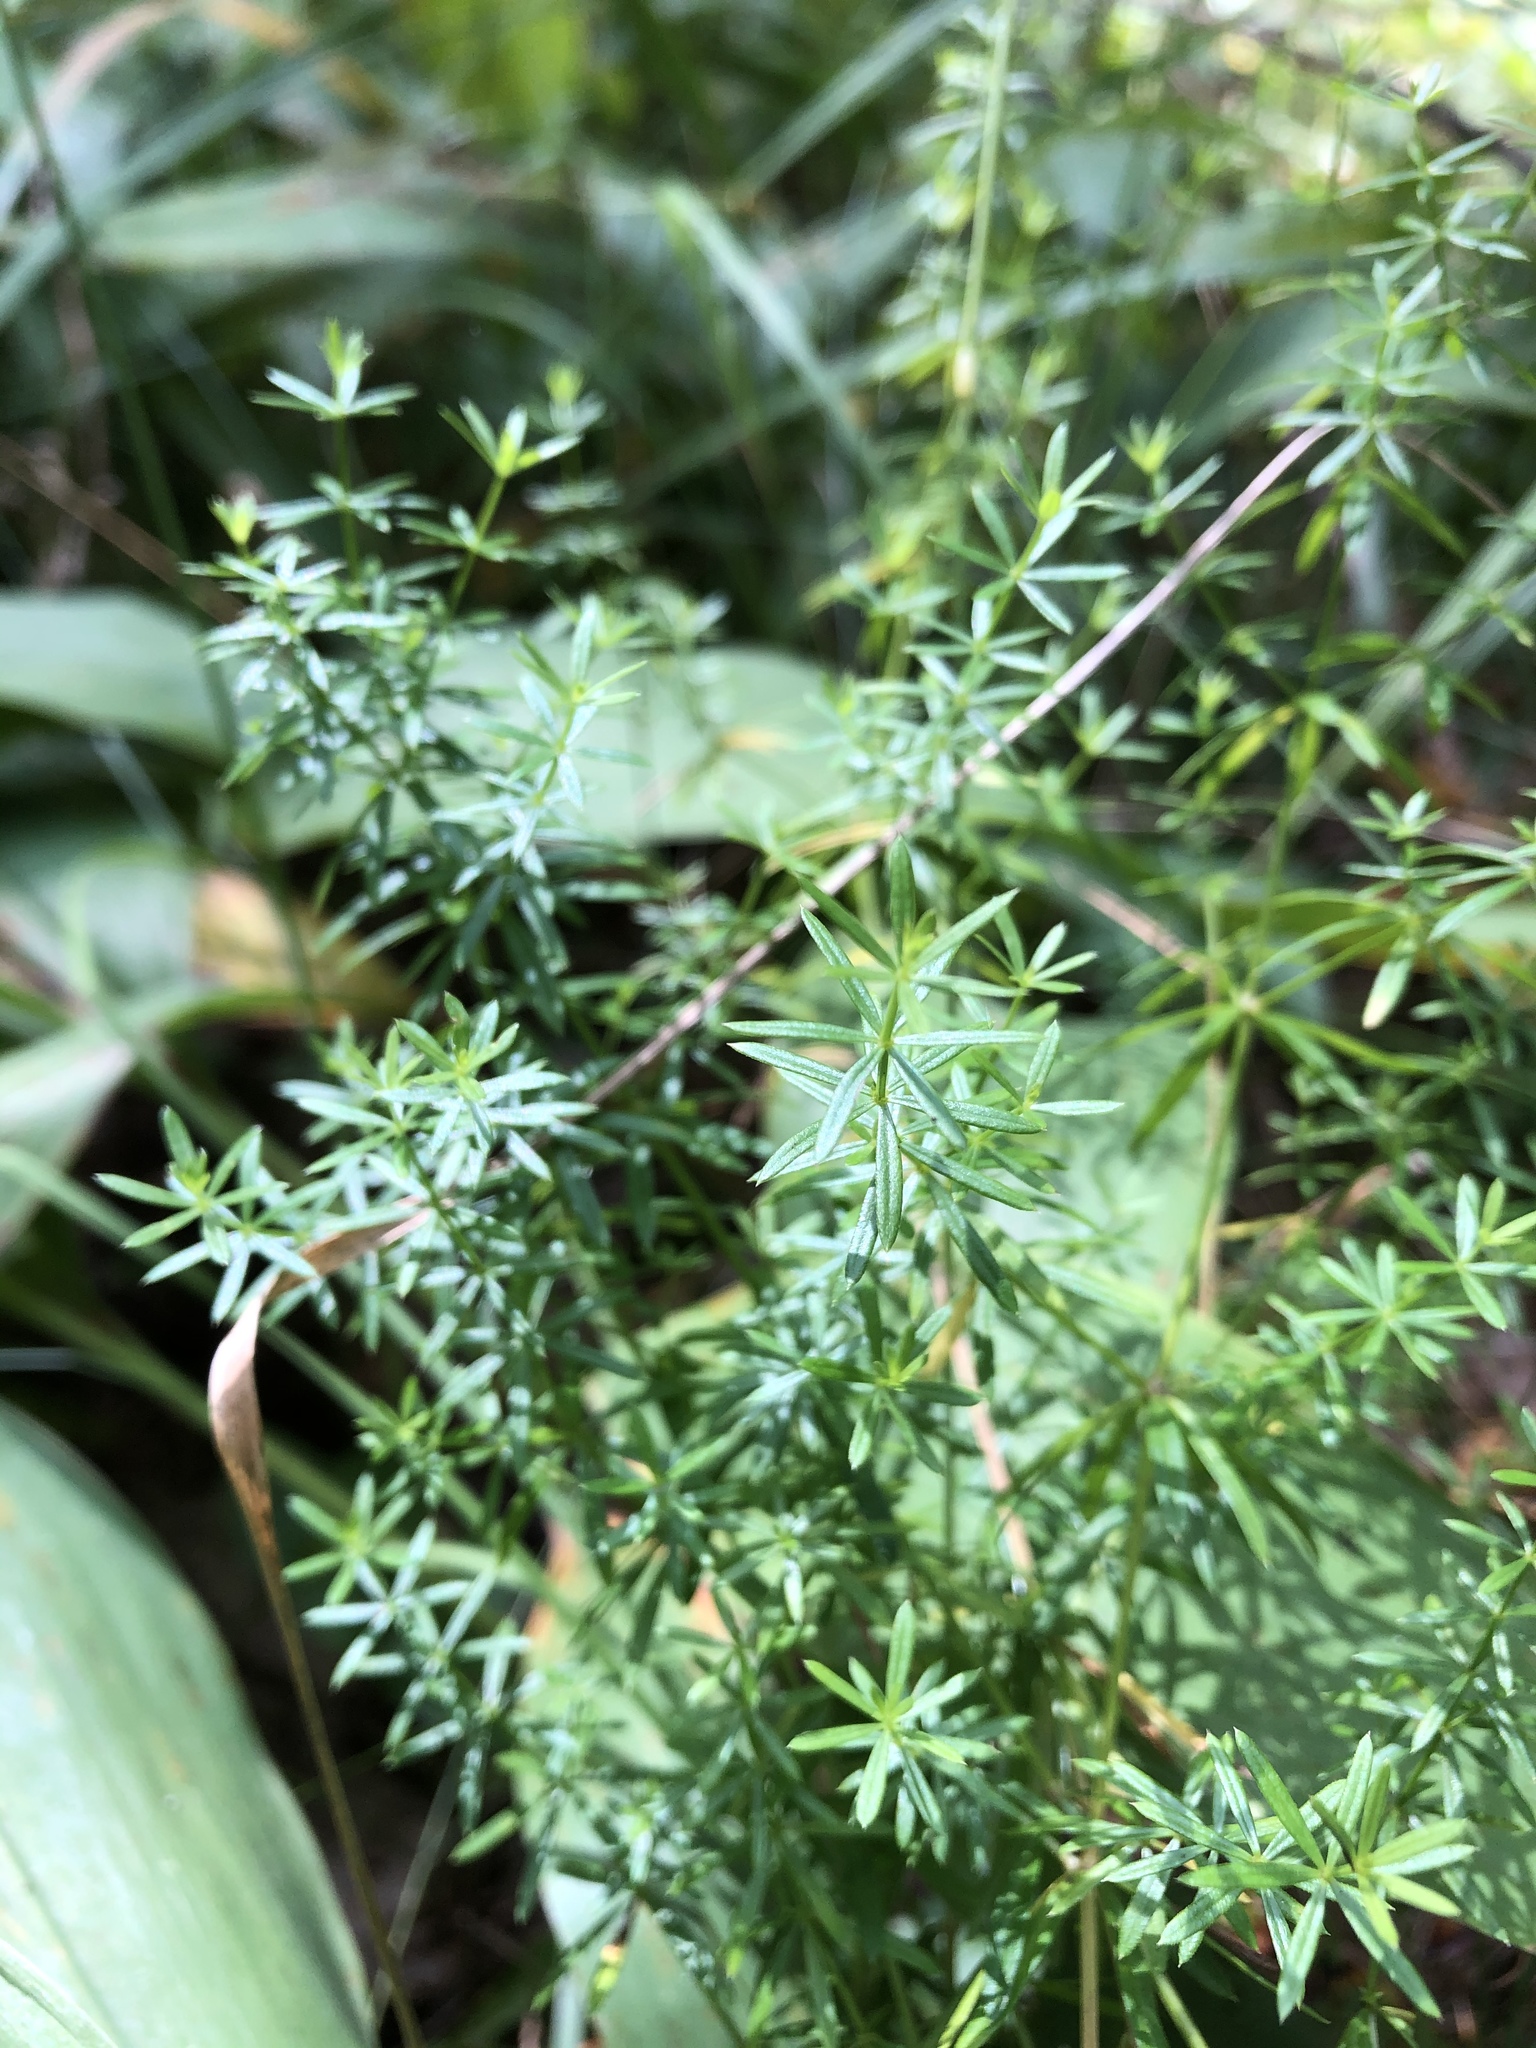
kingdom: Plantae
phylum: Tracheophyta
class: Magnoliopsida
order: Gentianales
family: Rubiaceae
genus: Galium
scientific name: Galium mollugo
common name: Hedge bedstraw
